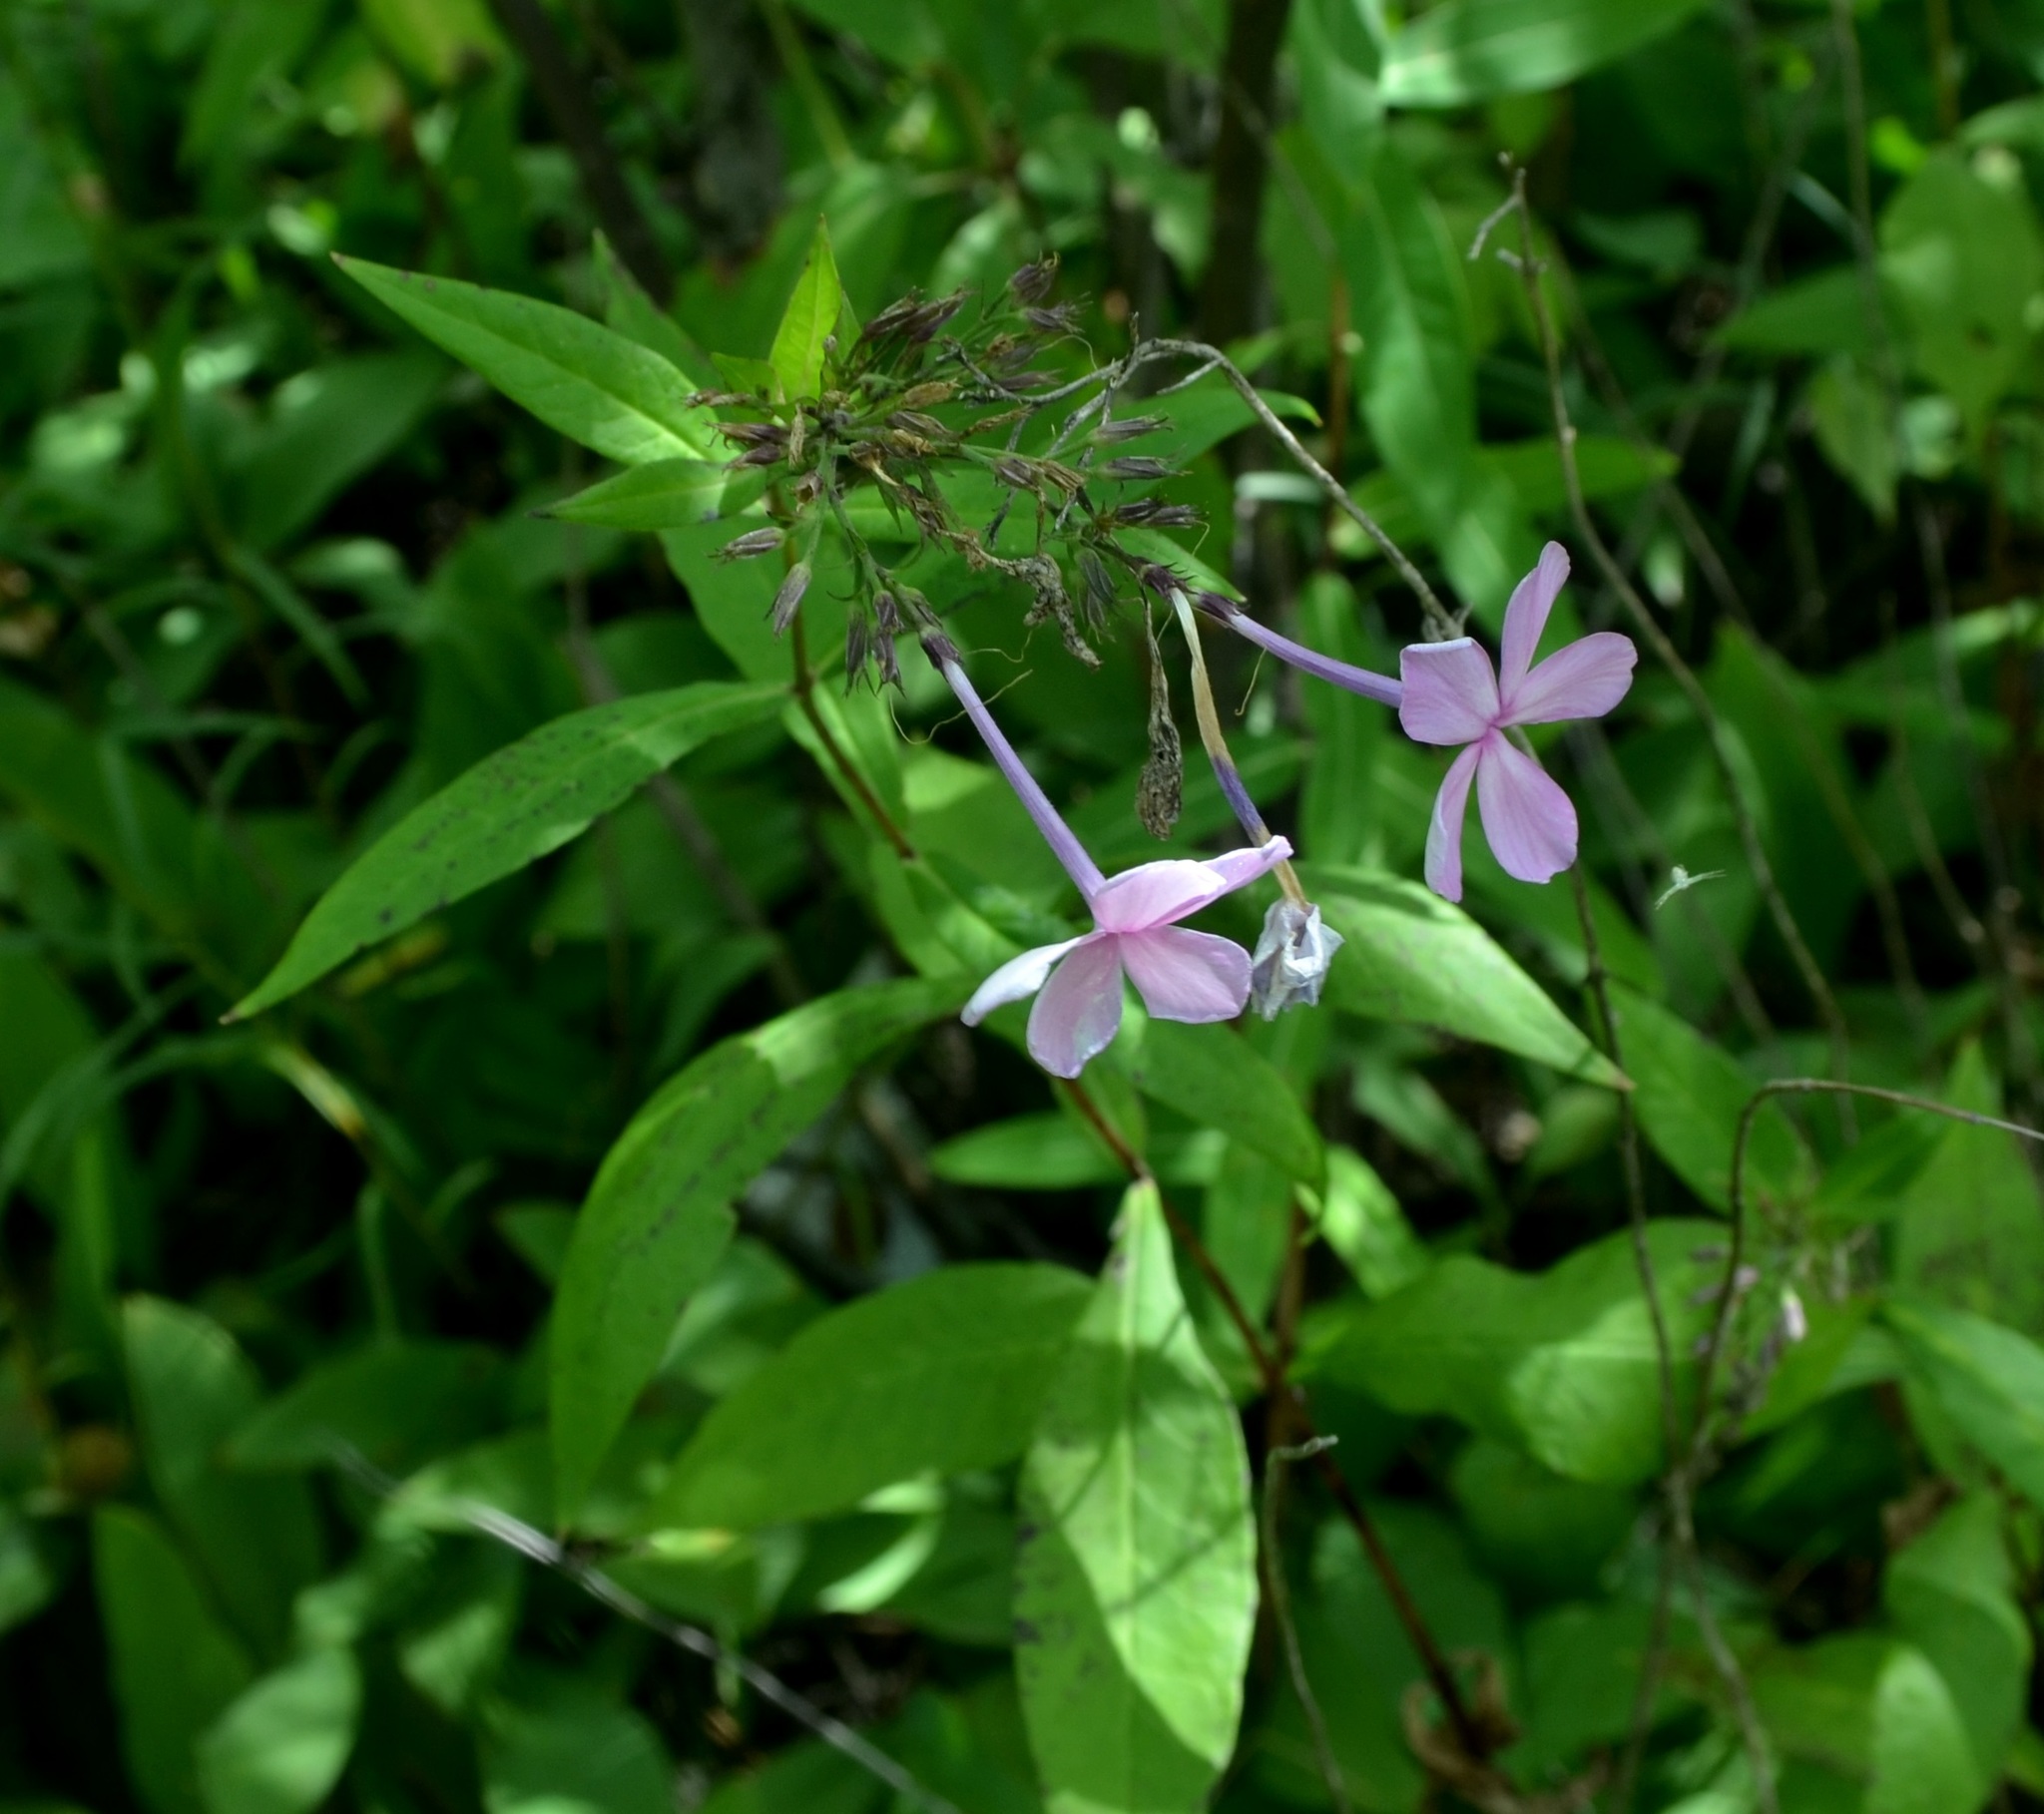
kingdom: Plantae
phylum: Tracheophyta
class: Magnoliopsida
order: Ericales
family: Polemoniaceae
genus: Phlox
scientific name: Phlox paniculata
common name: Fall phlox
